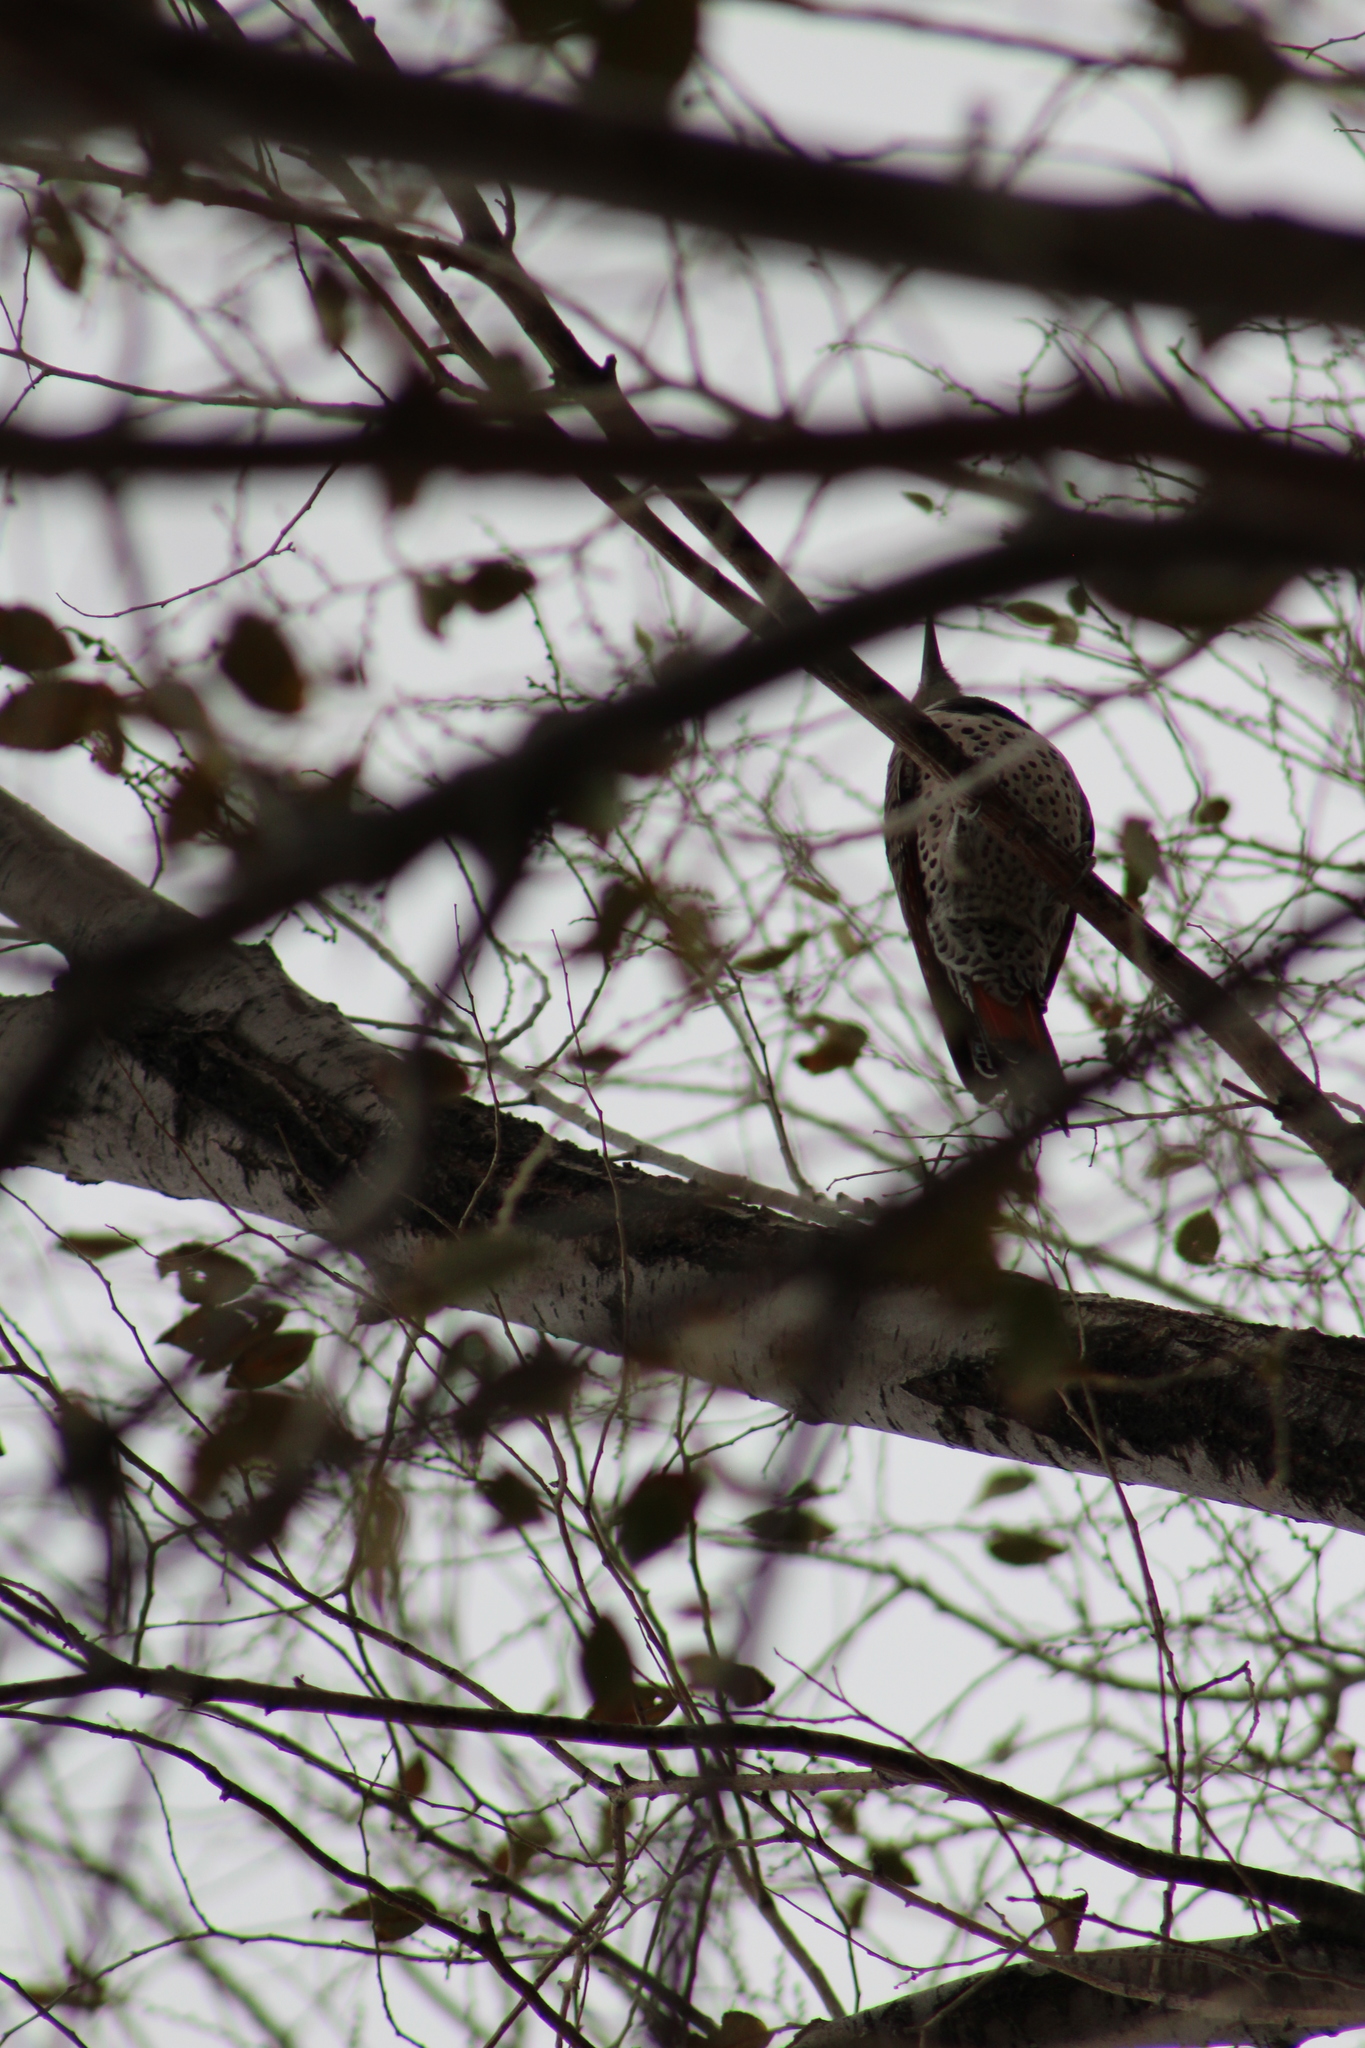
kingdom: Animalia
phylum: Chordata
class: Aves
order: Piciformes
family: Picidae
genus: Colaptes
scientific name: Colaptes auratus
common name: Northern flicker
